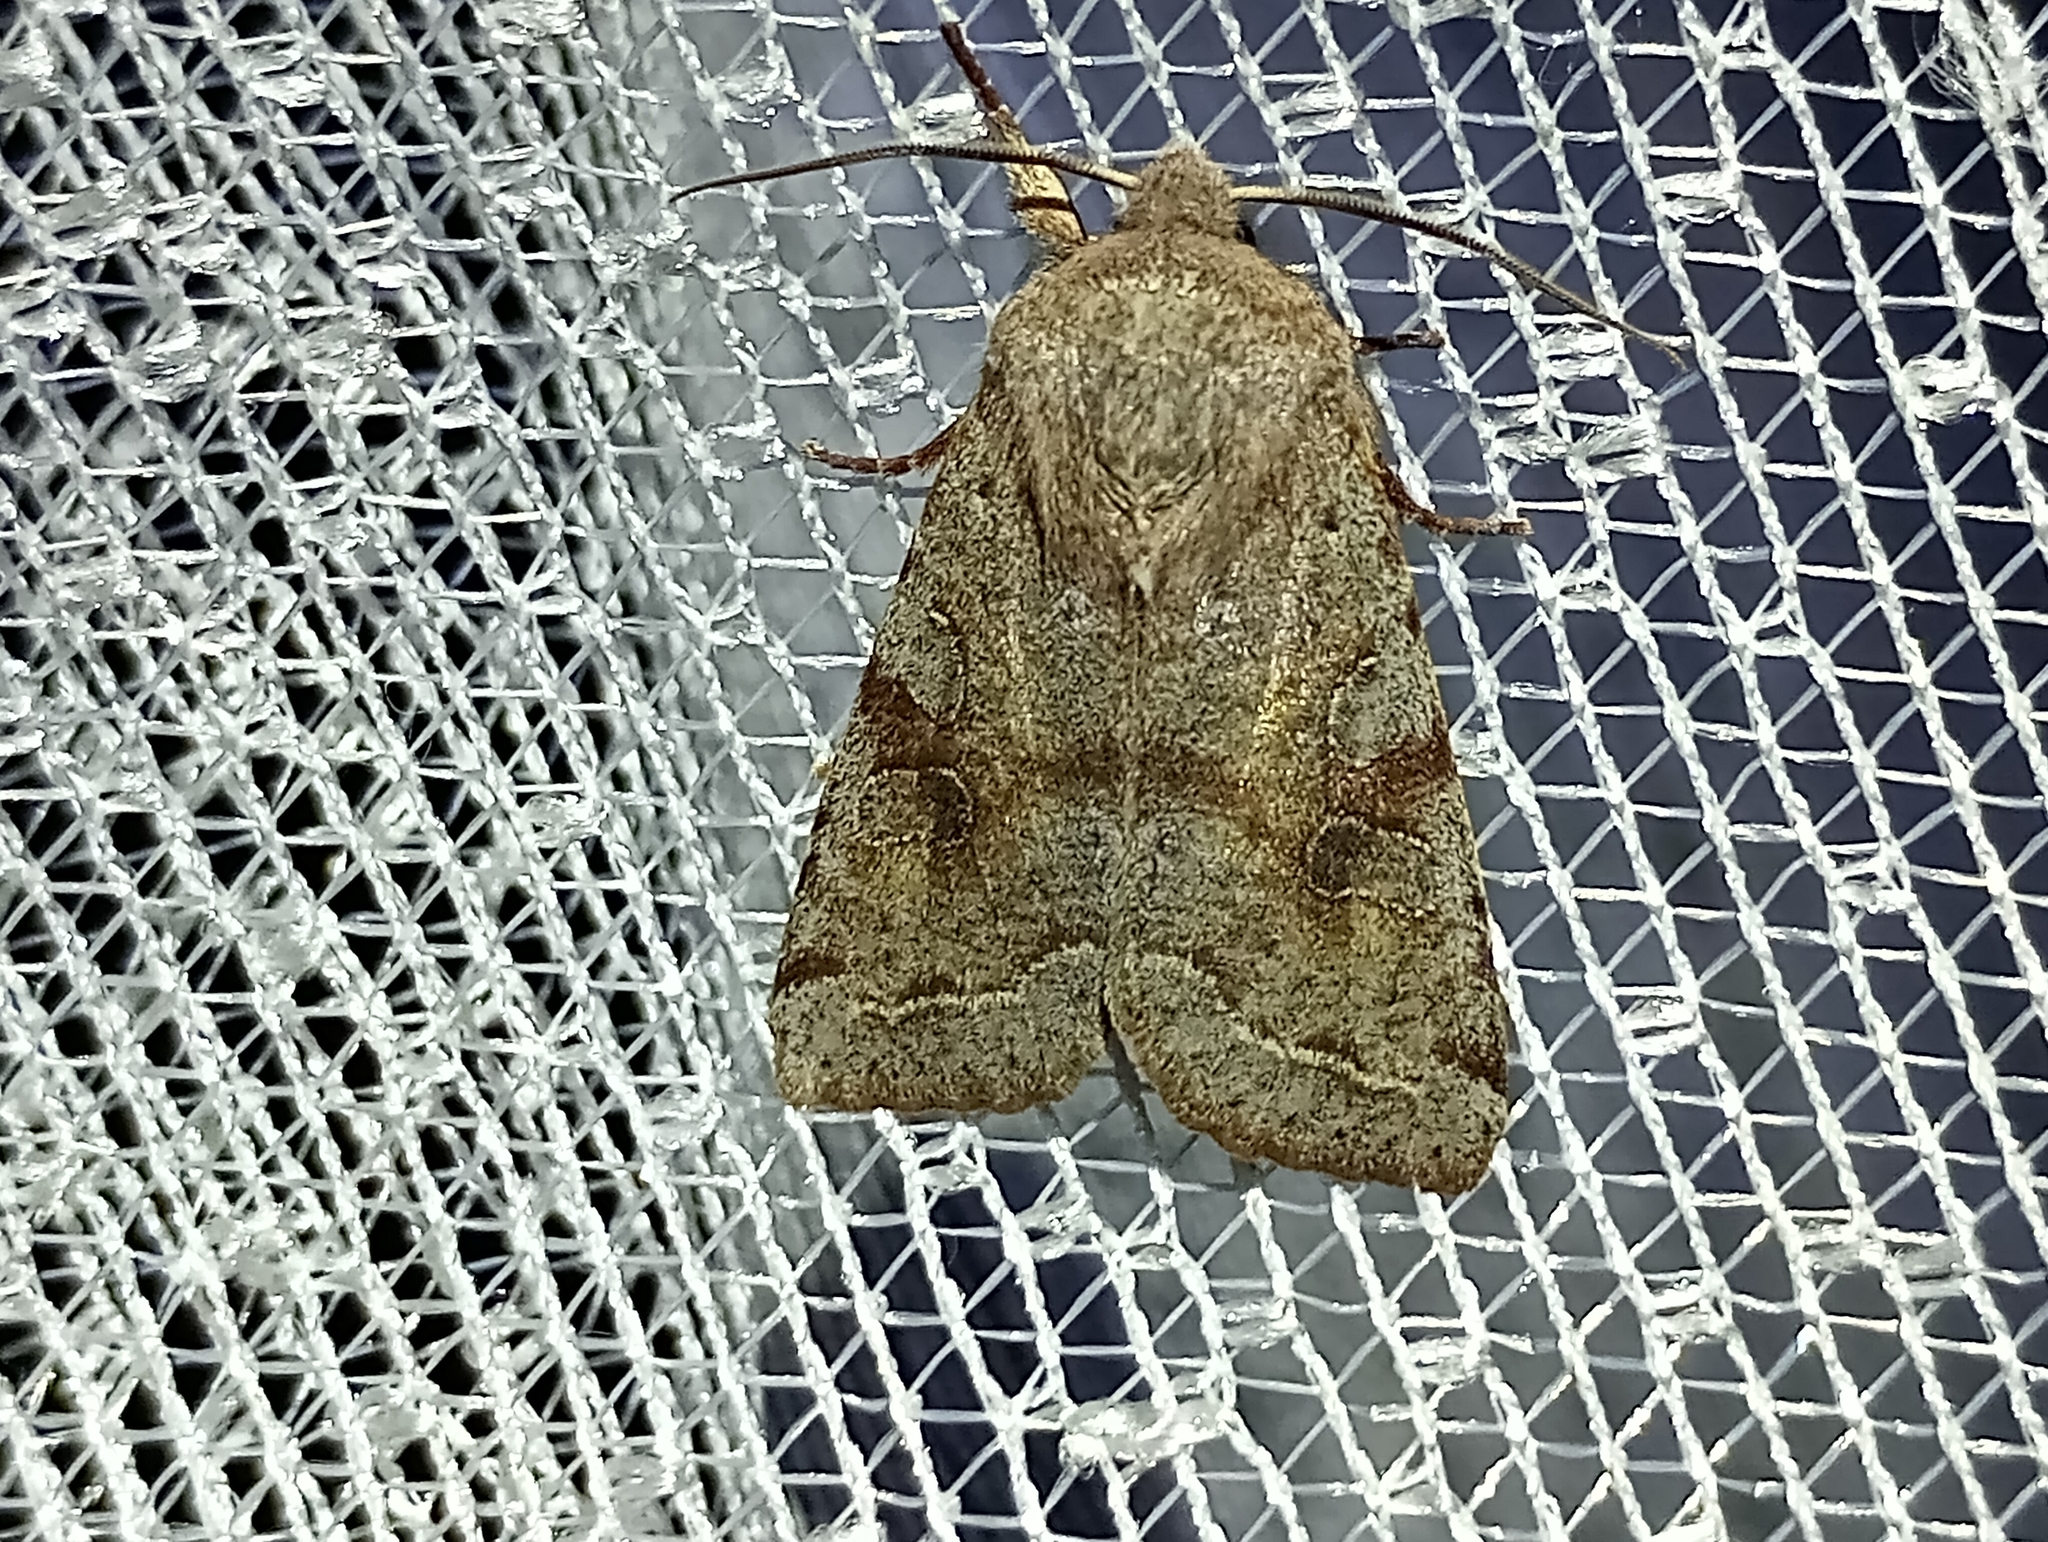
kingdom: Animalia
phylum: Arthropoda
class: Insecta
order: Lepidoptera
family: Noctuidae
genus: Orthosia
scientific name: Orthosia incerta
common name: Clouded drab
